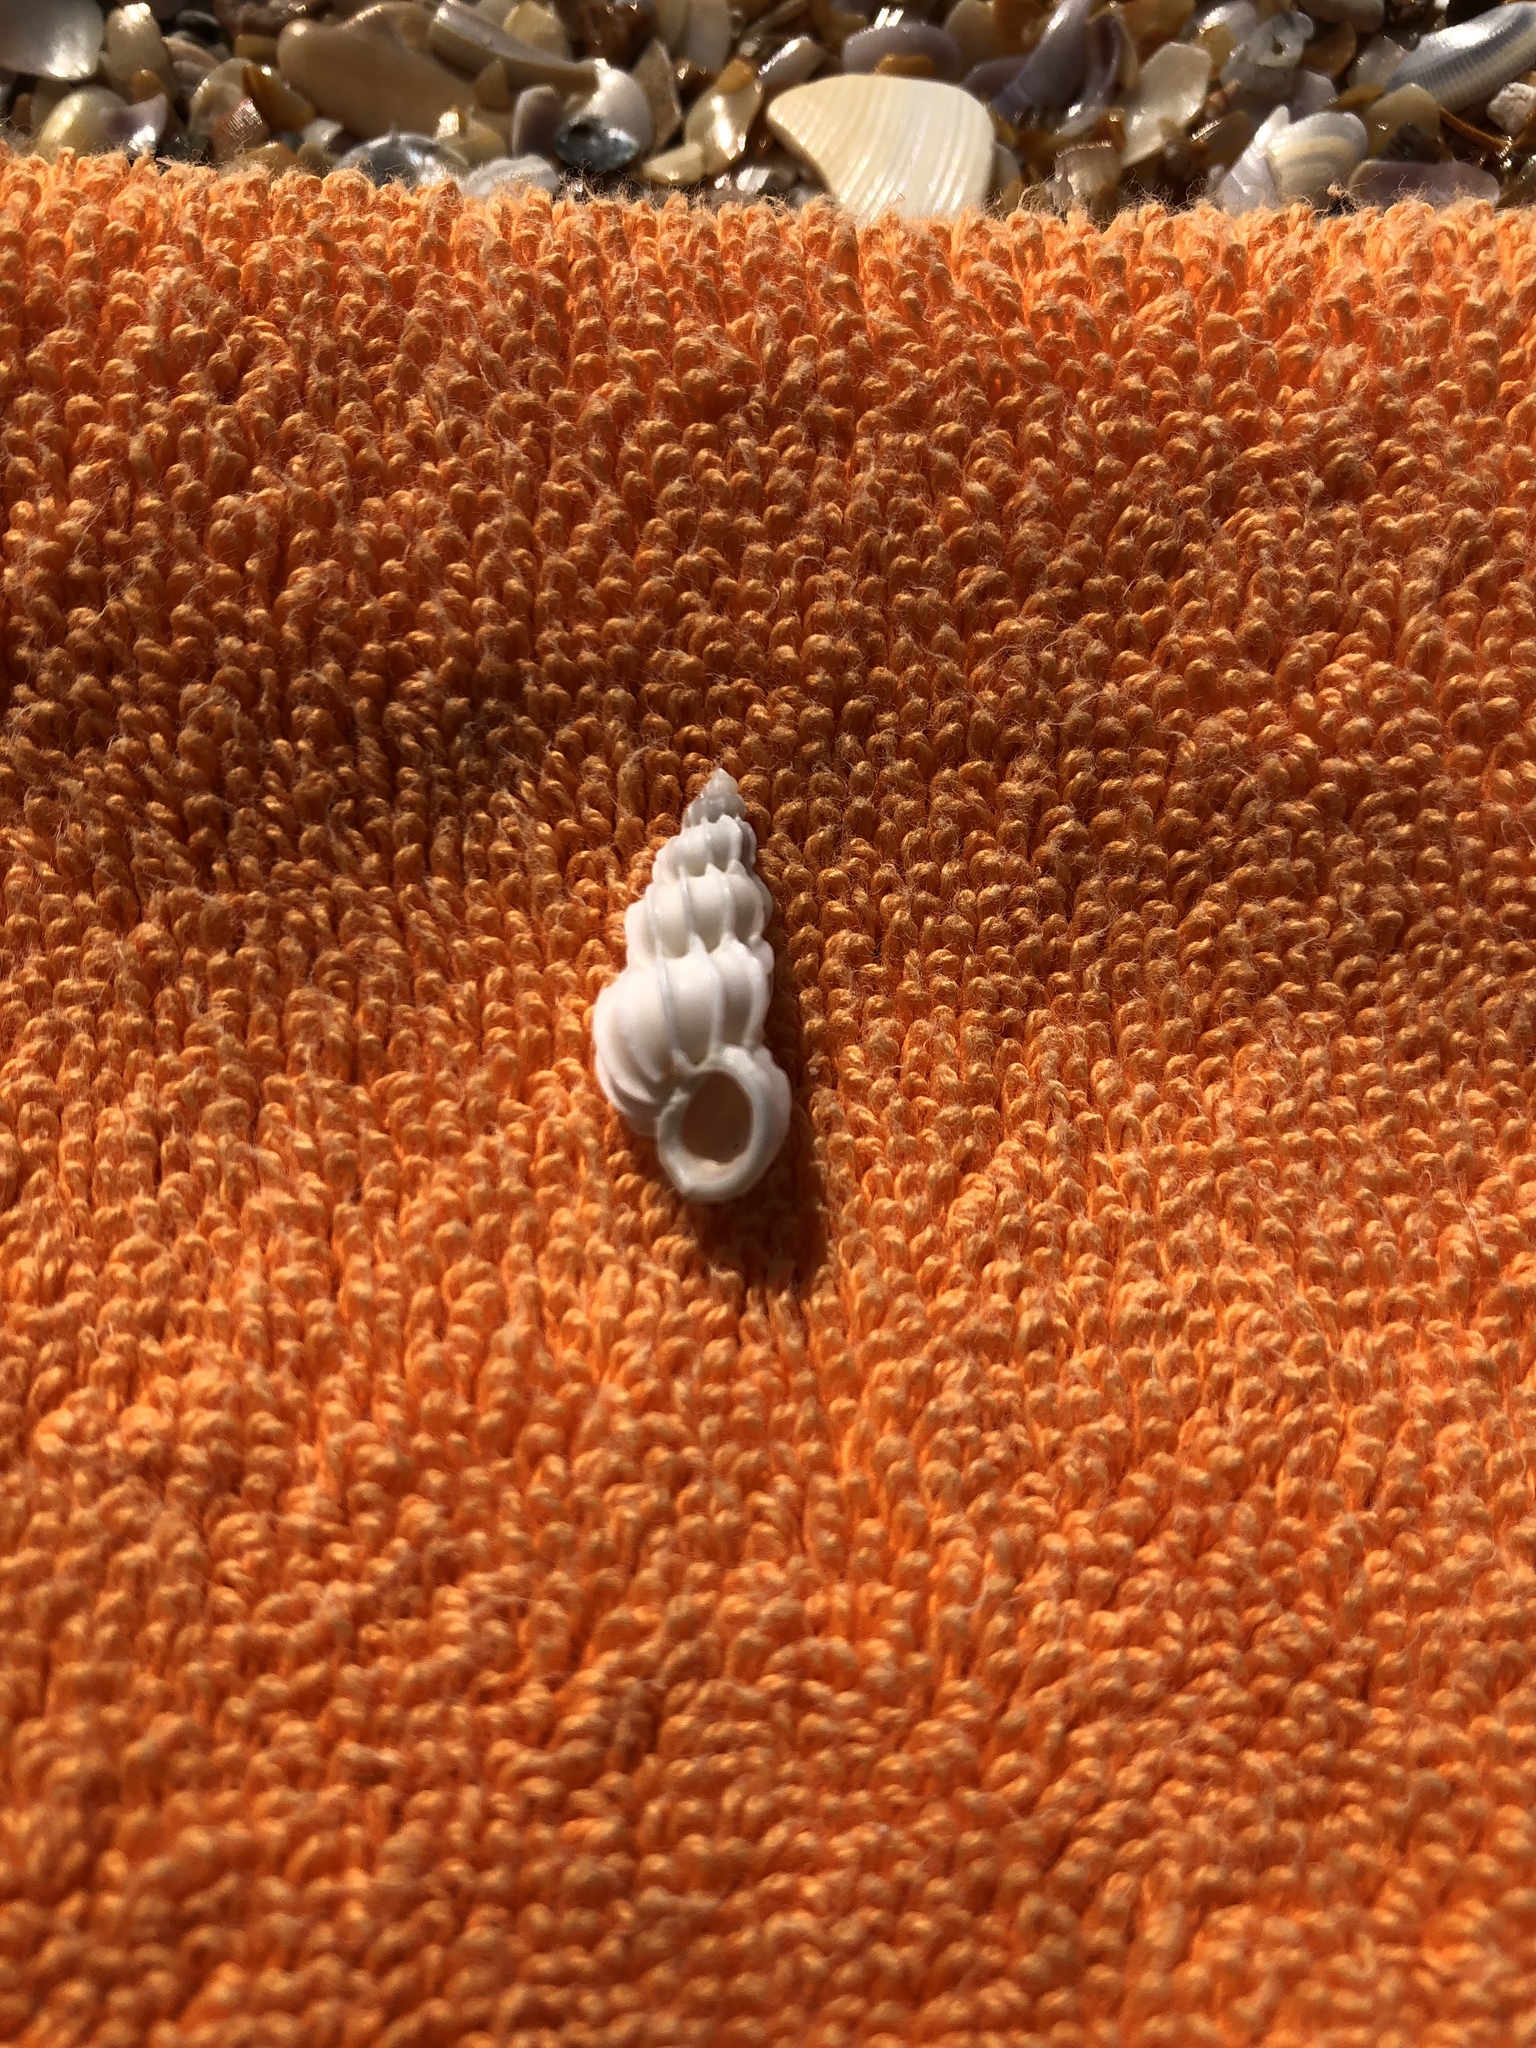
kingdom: Animalia
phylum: Mollusca
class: Gastropoda
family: Epitoniidae
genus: Epitonium
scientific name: Epitonium angulatum
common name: Angulate wentletrap
